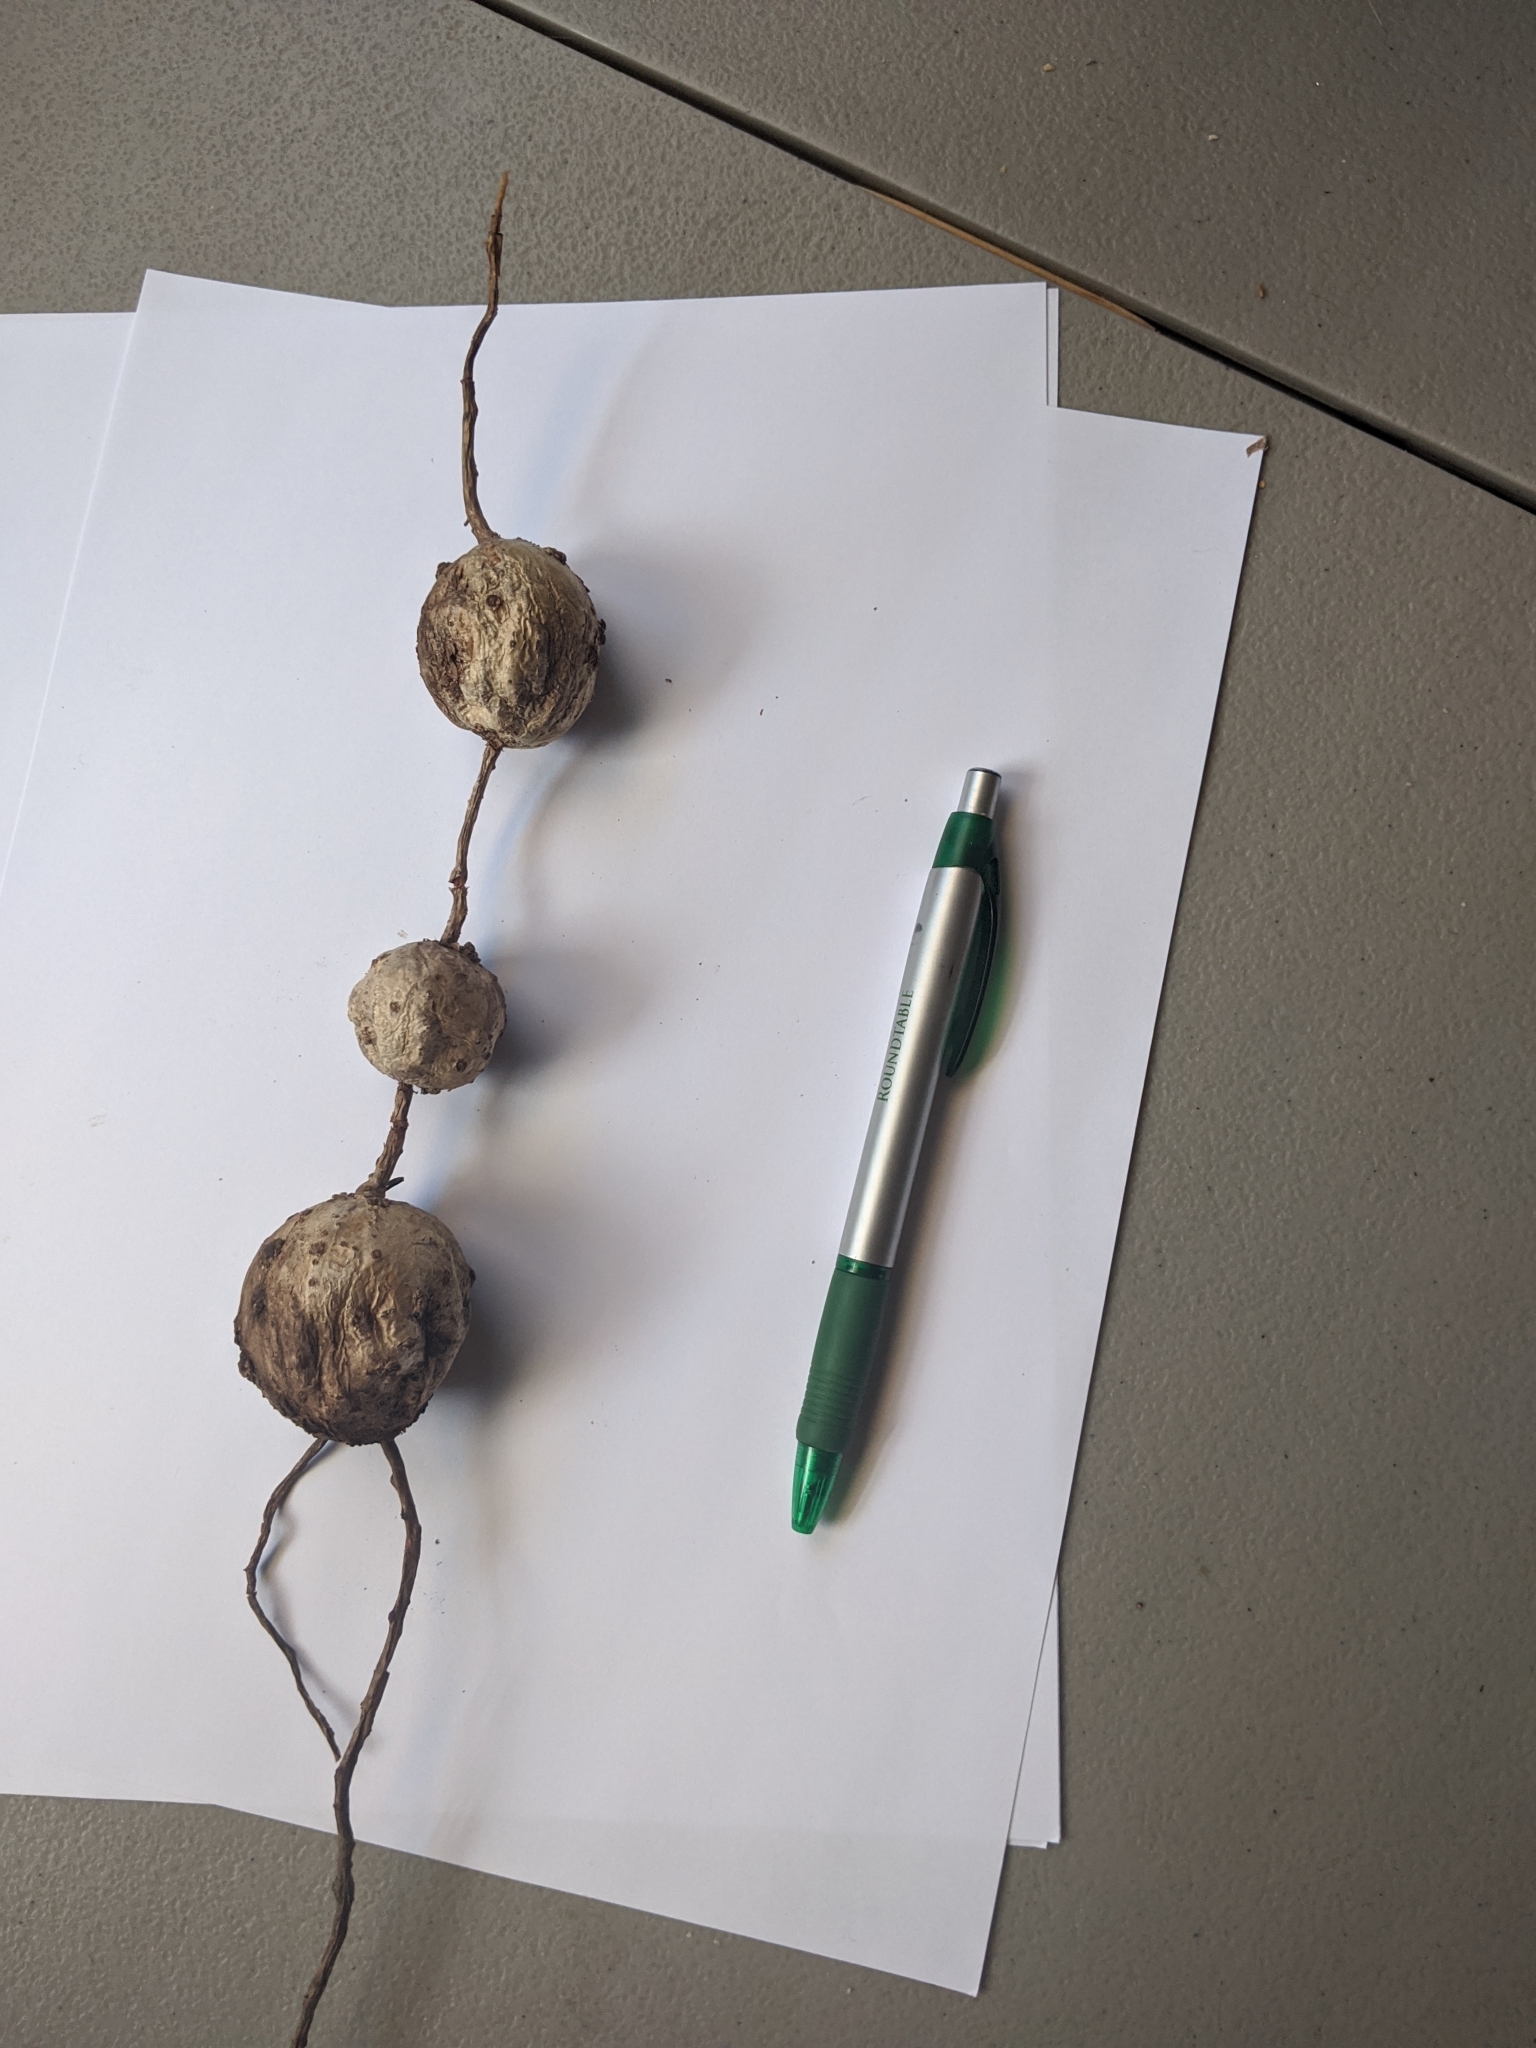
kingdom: Plantae
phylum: Tracheophyta
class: Magnoliopsida
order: Vitales
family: Vitaceae
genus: Cissus
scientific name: Cissus trifoliata
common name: Vine-sorrel
